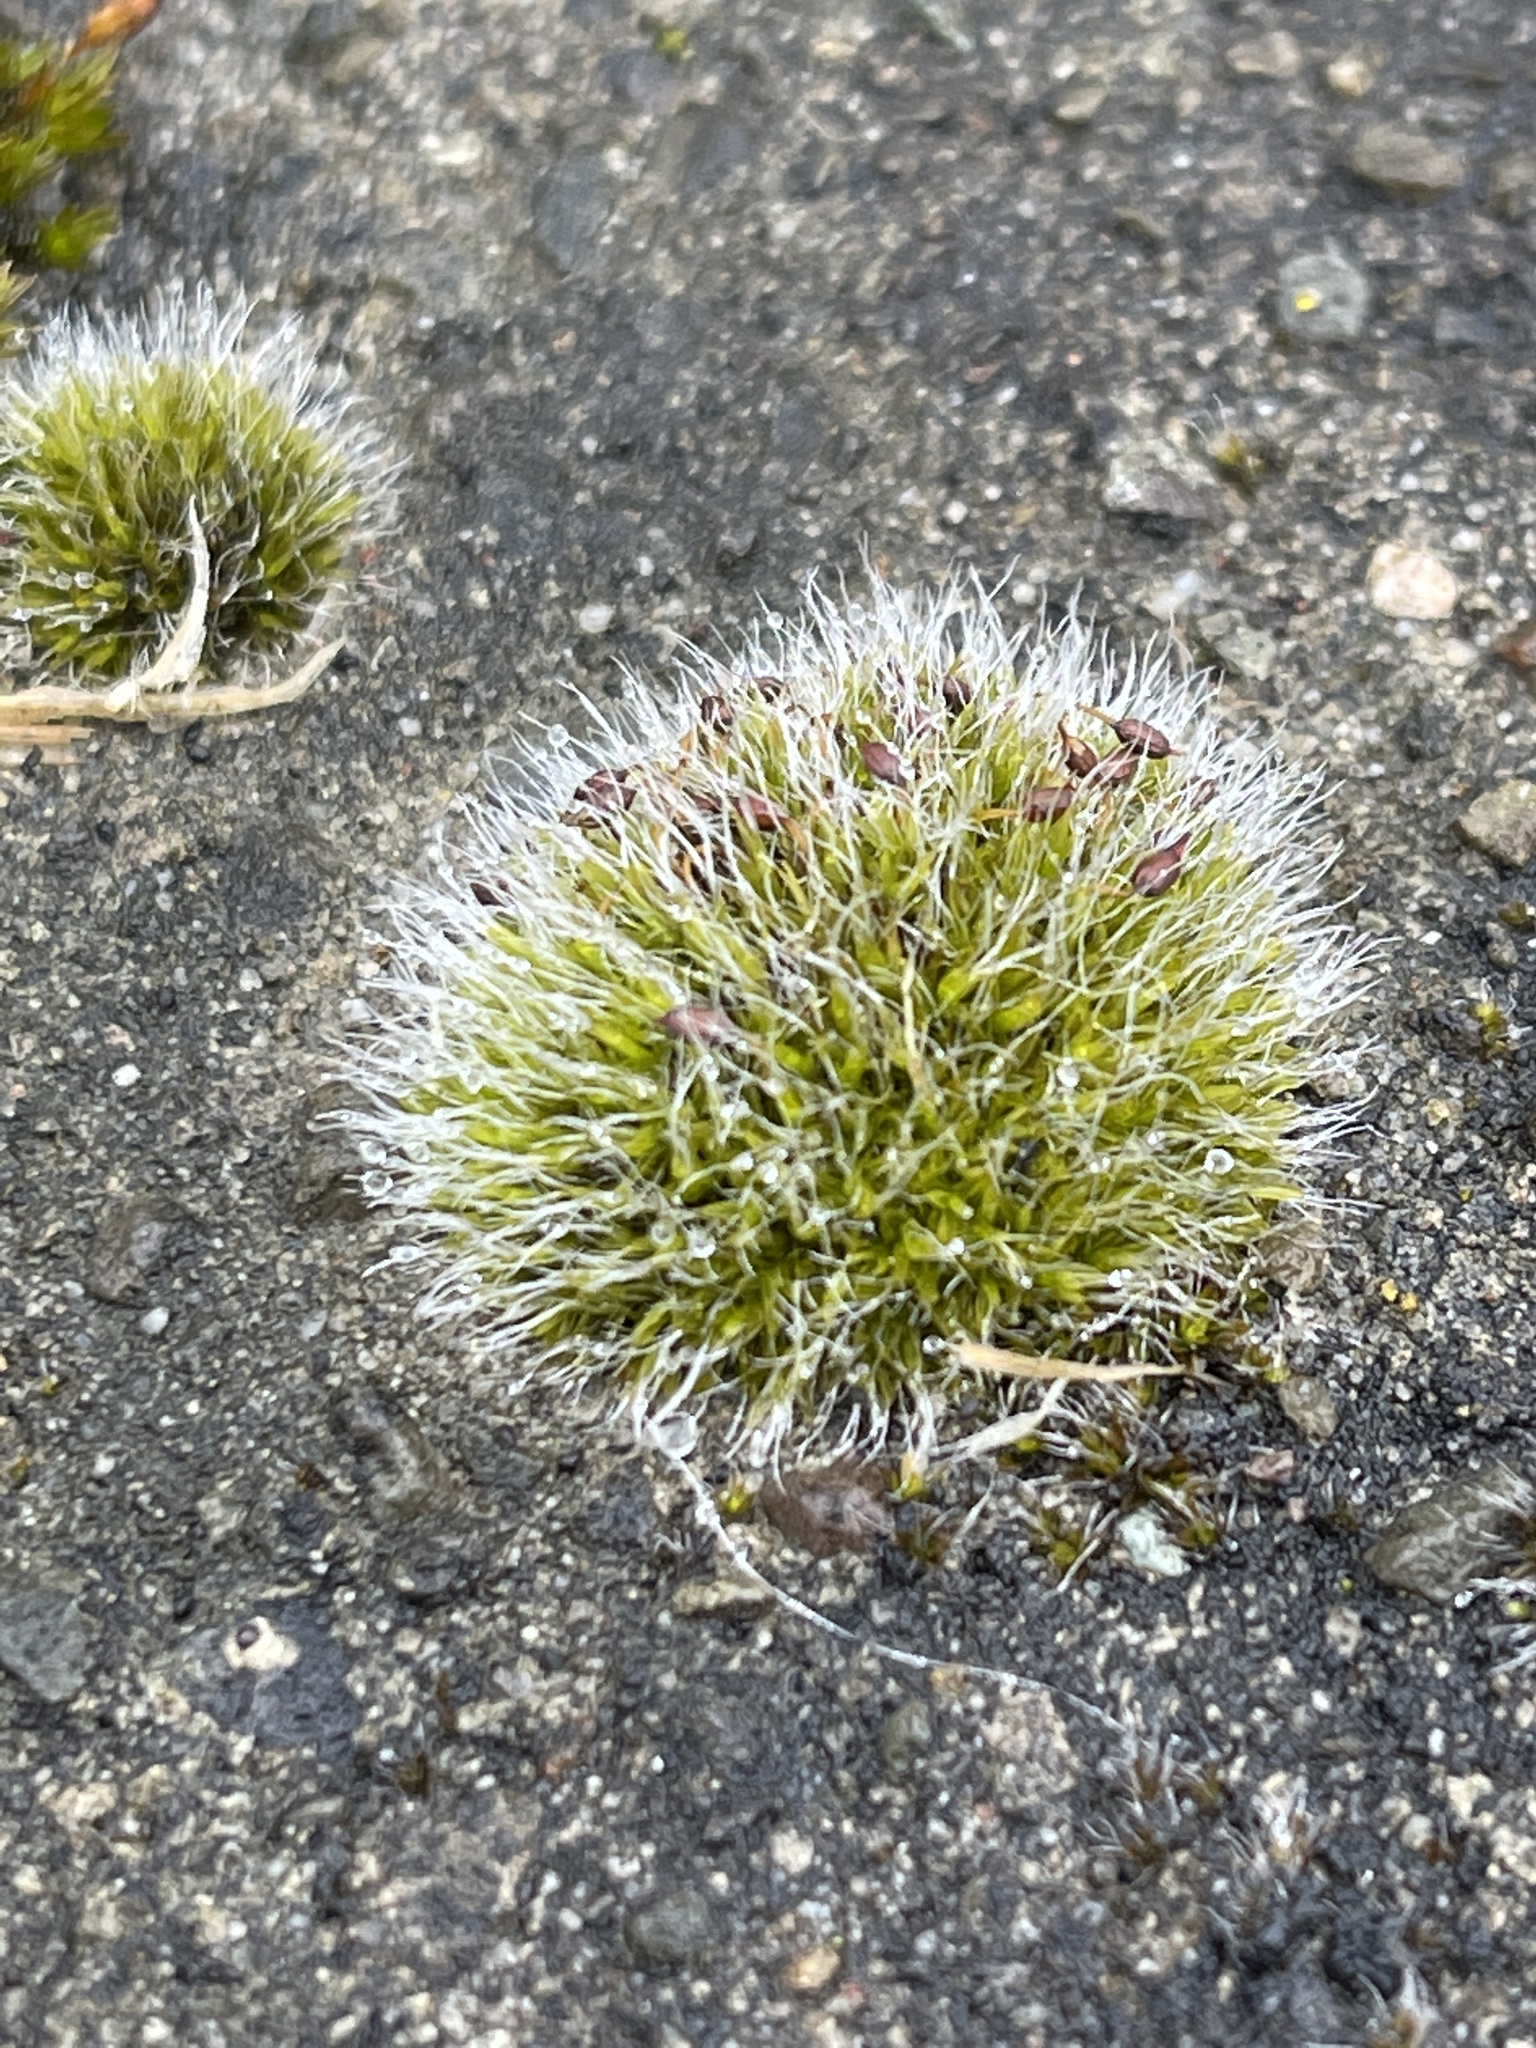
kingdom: Plantae
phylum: Bryophyta
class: Bryopsida
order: Grimmiales
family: Grimmiaceae
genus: Grimmia
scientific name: Grimmia pulvinata
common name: Grey-cushioned grimmia
